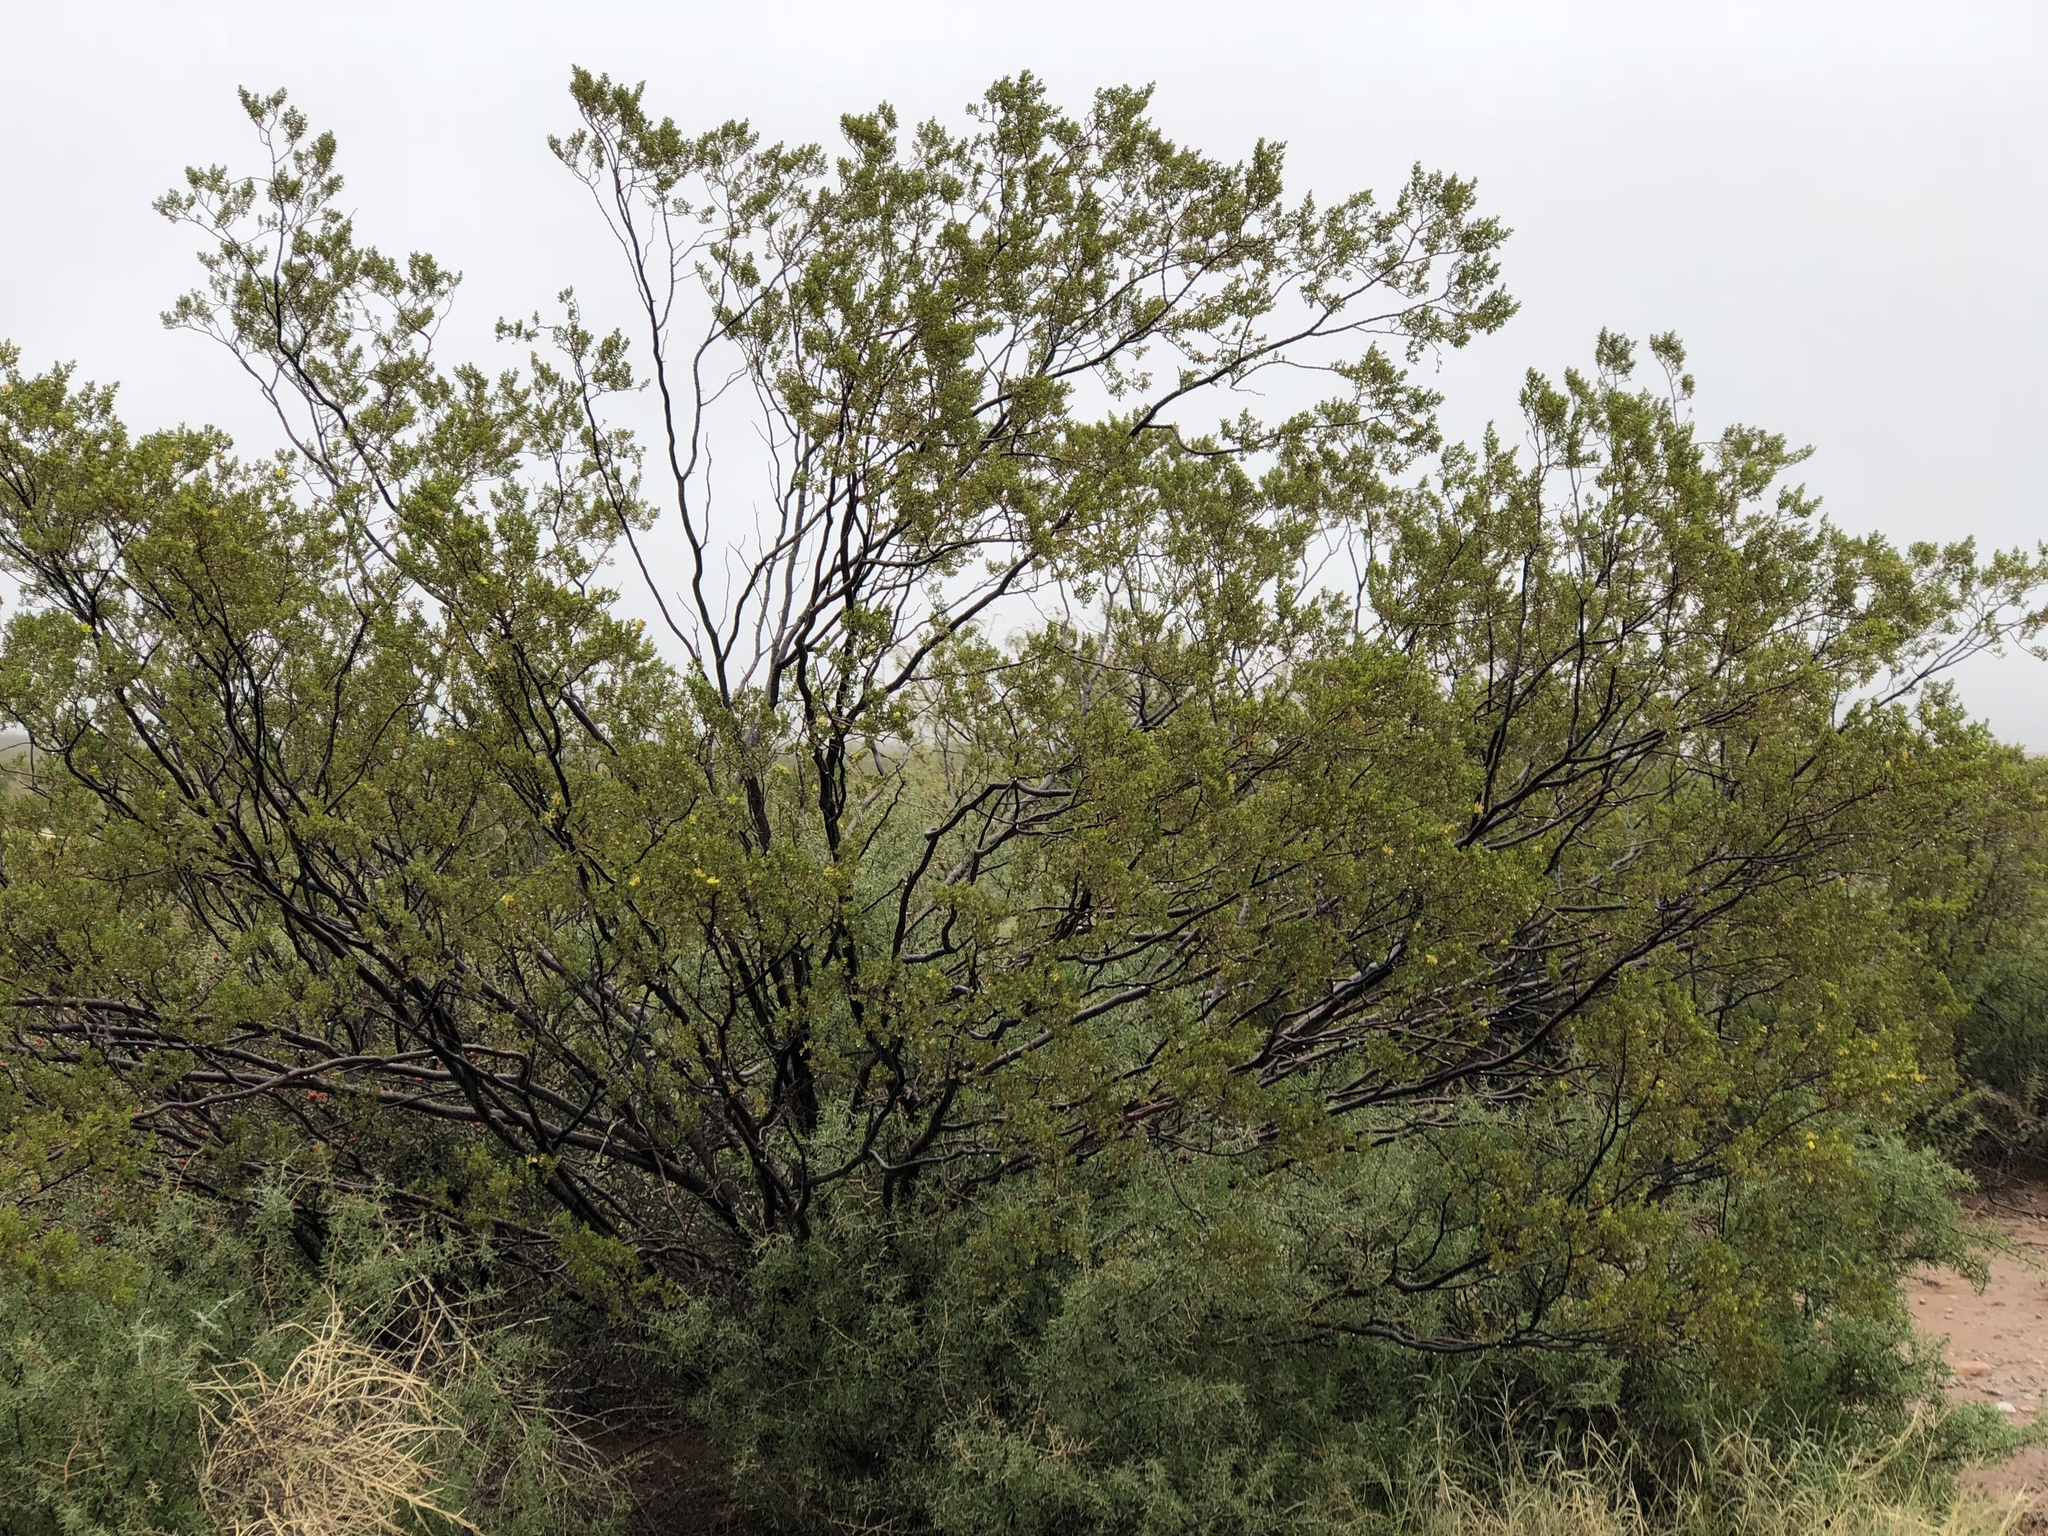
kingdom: Plantae
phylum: Tracheophyta
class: Magnoliopsida
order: Zygophyllales
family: Zygophyllaceae
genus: Larrea
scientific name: Larrea tridentata
